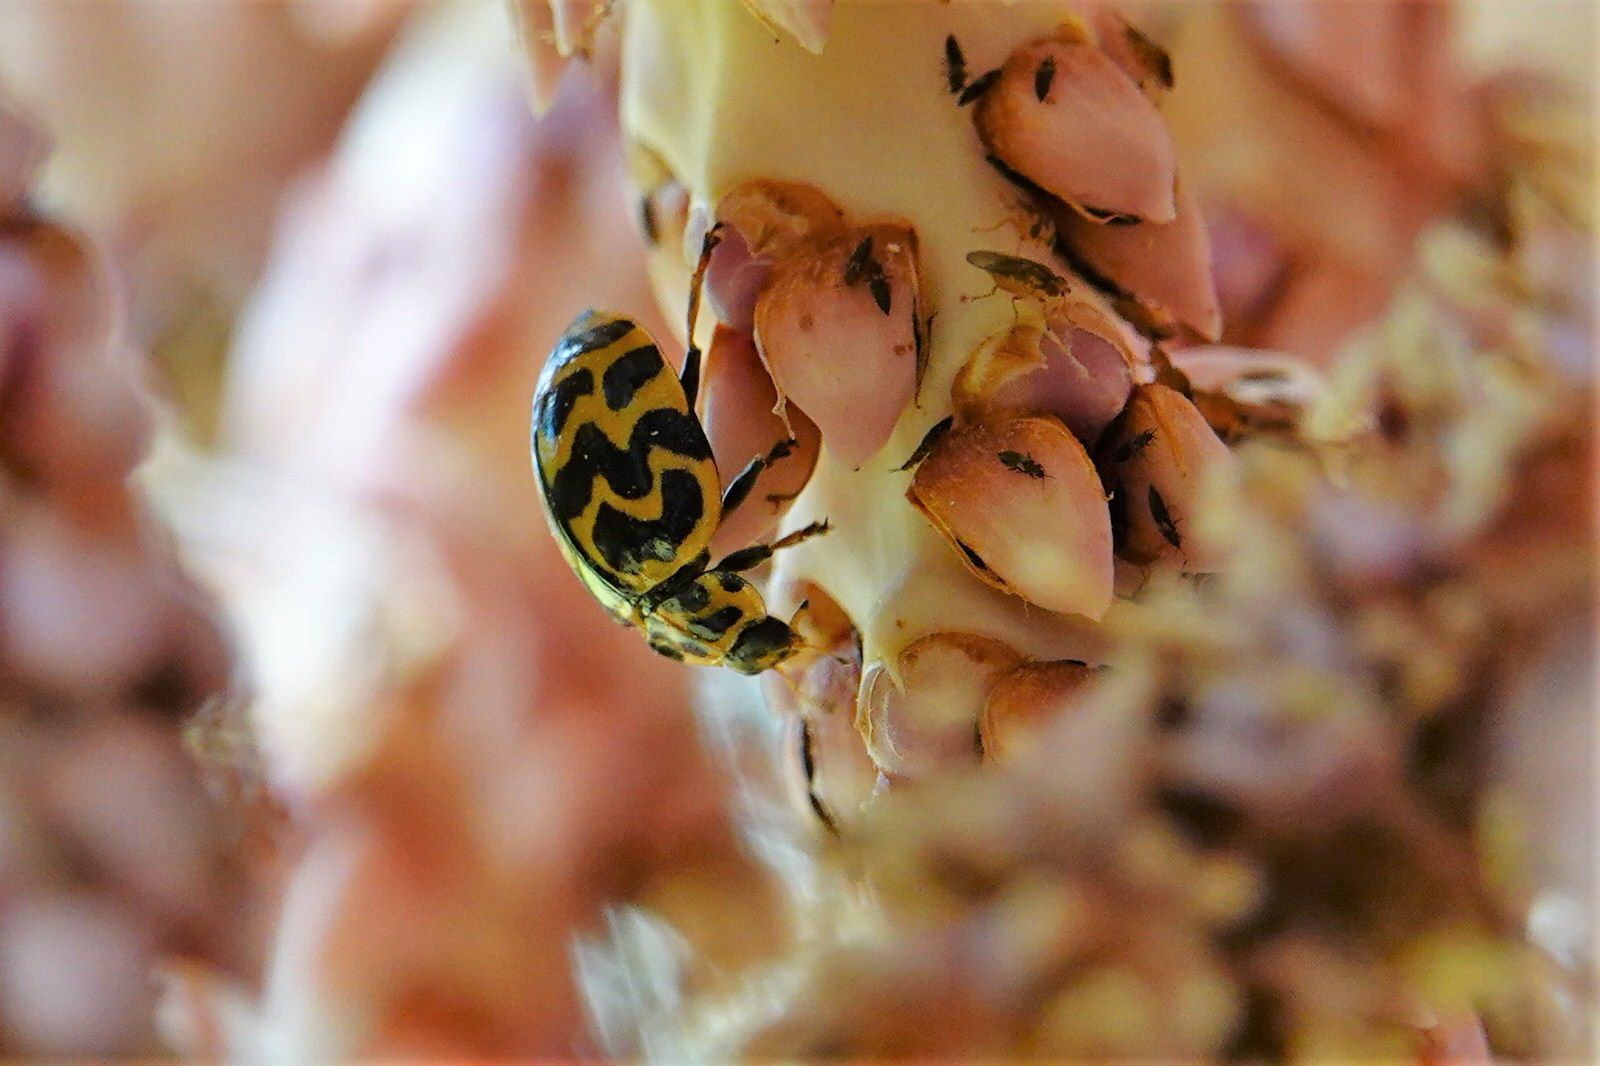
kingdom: Animalia
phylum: Arthropoda
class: Insecta
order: Coleoptera
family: Coccinellidae
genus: Cleobora
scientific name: Cleobora
